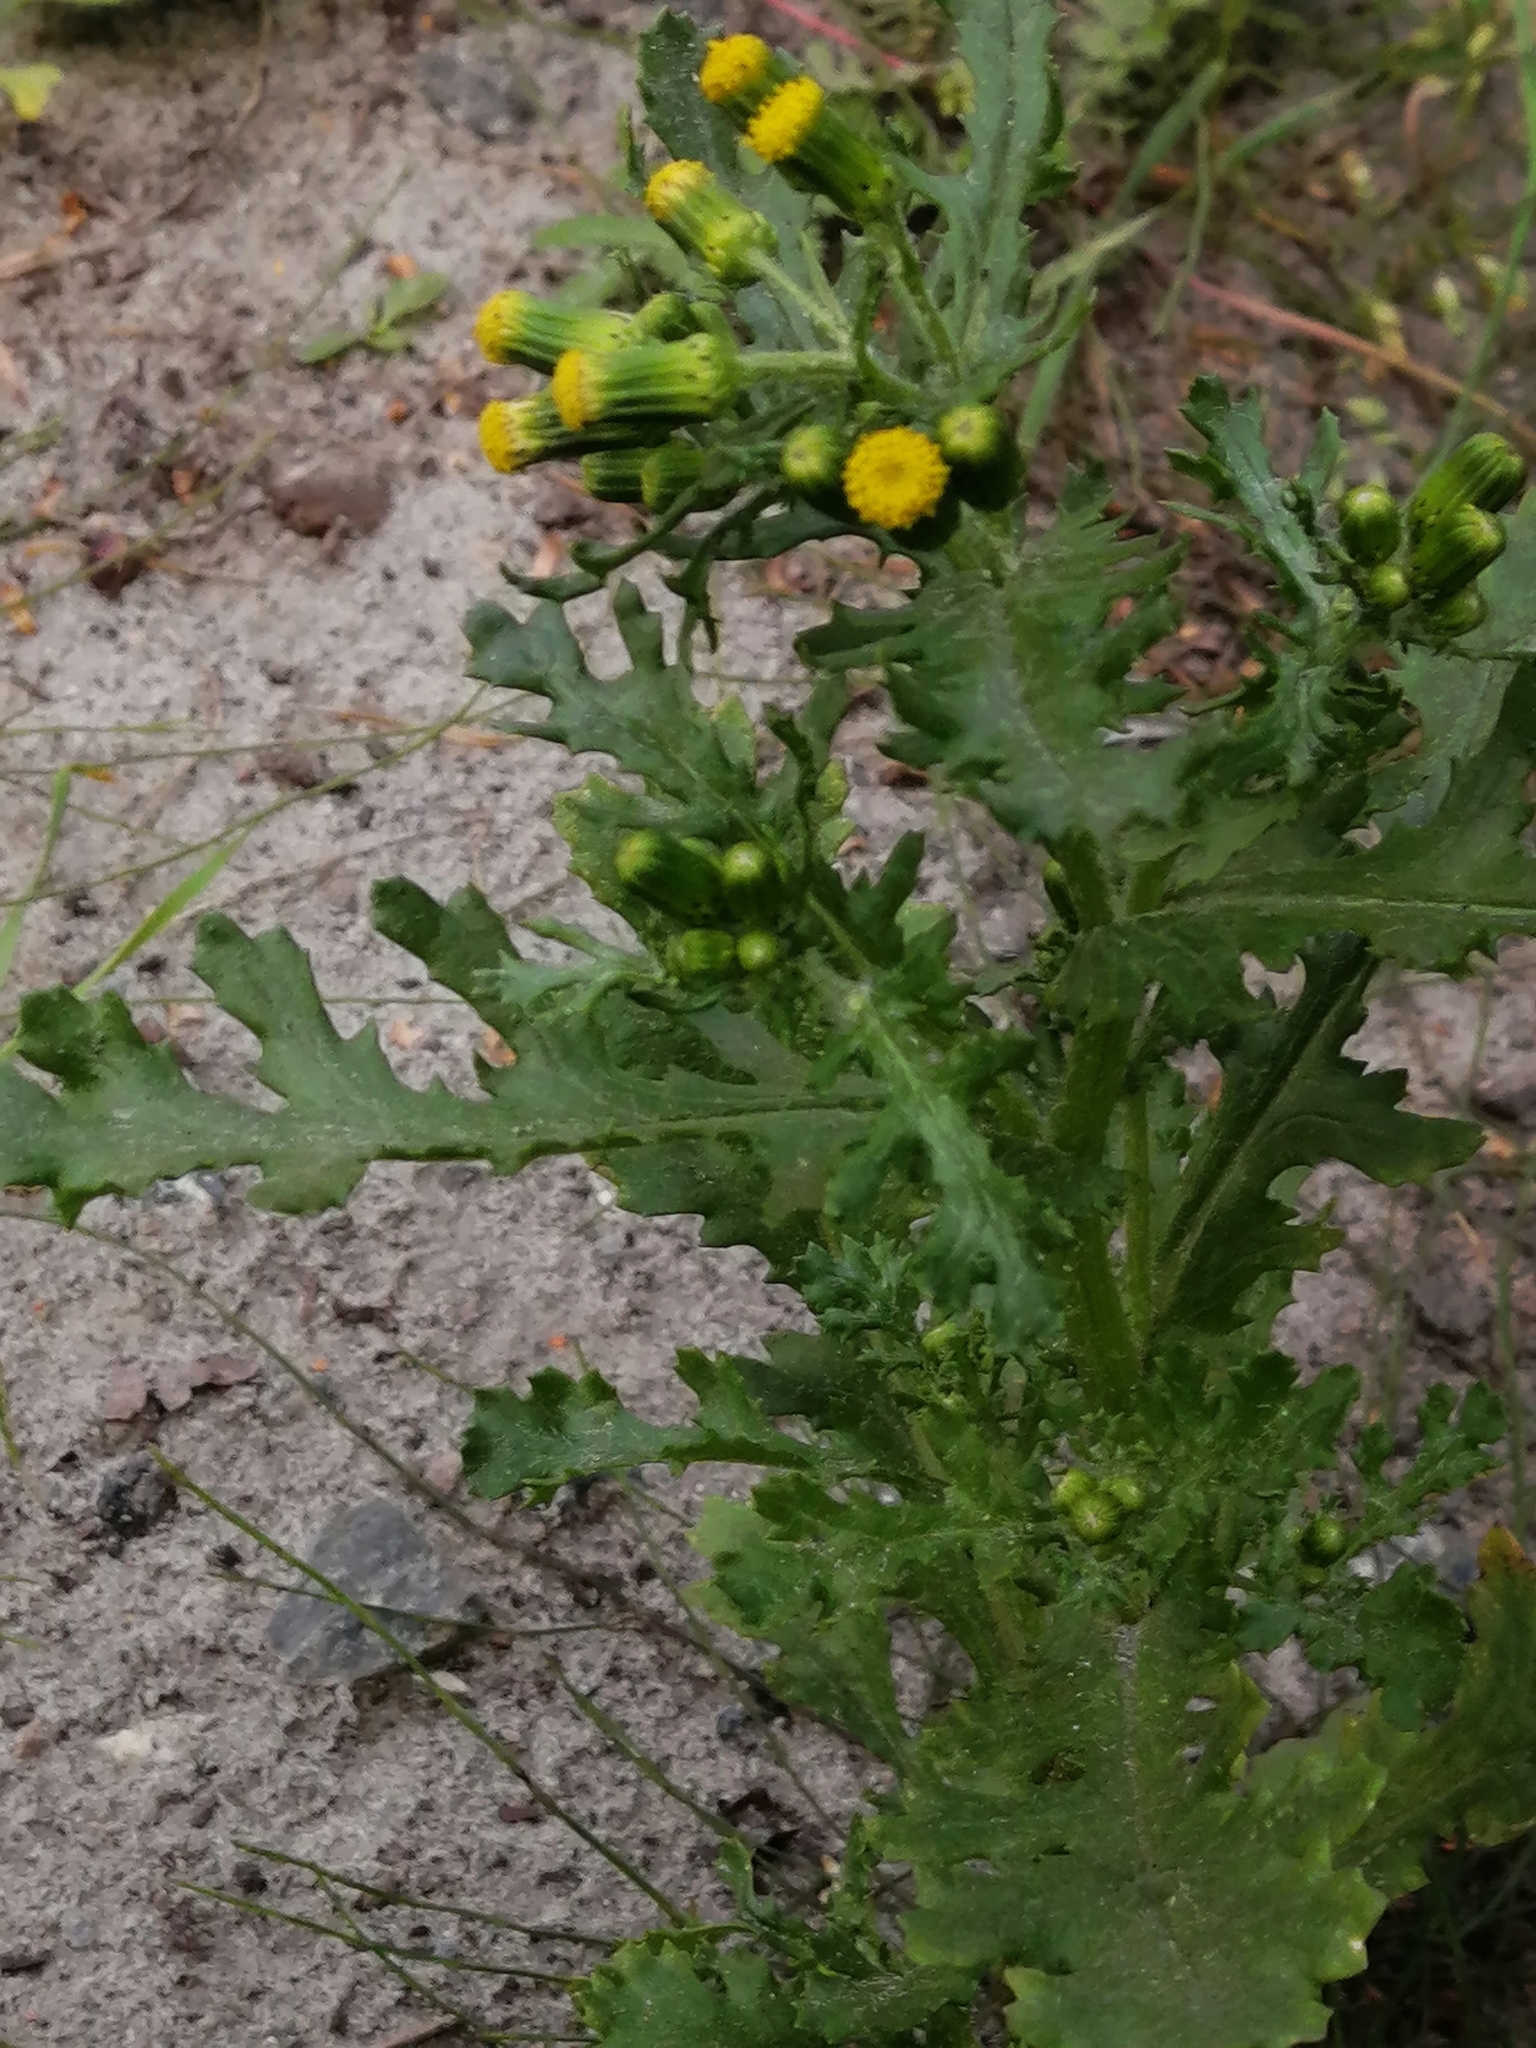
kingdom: Plantae
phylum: Tracheophyta
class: Magnoliopsida
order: Asterales
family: Asteraceae
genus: Senecio
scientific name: Senecio vulgaris
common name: Old-man-in-the-spring
